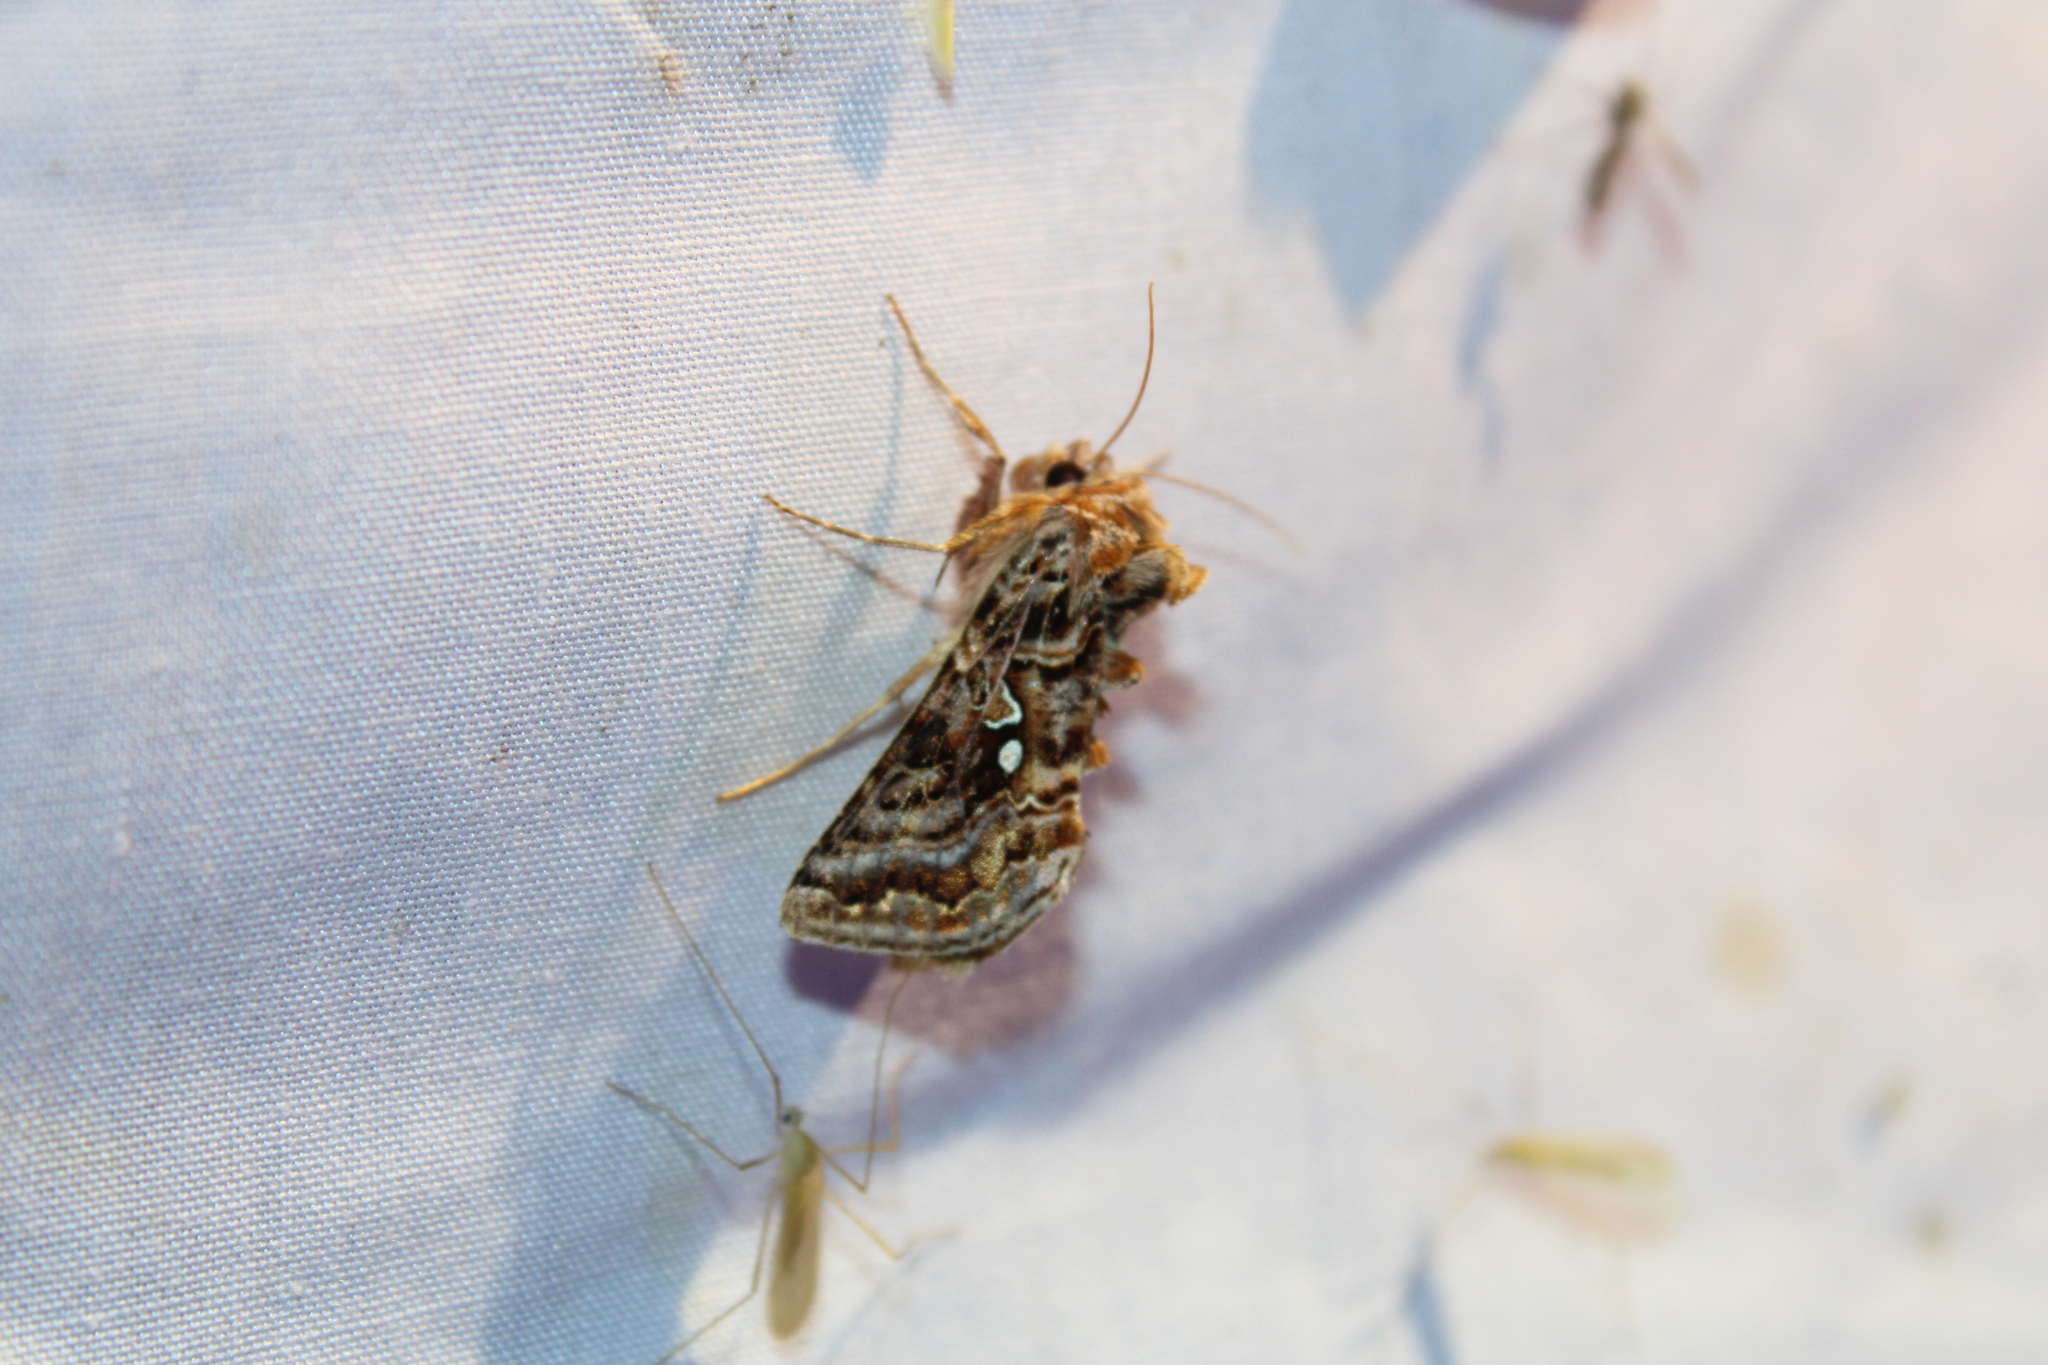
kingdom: Animalia
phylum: Arthropoda
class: Insecta
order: Lepidoptera
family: Noctuidae
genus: Autographa
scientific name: Autographa mappa
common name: Wavy chestnut y moth
